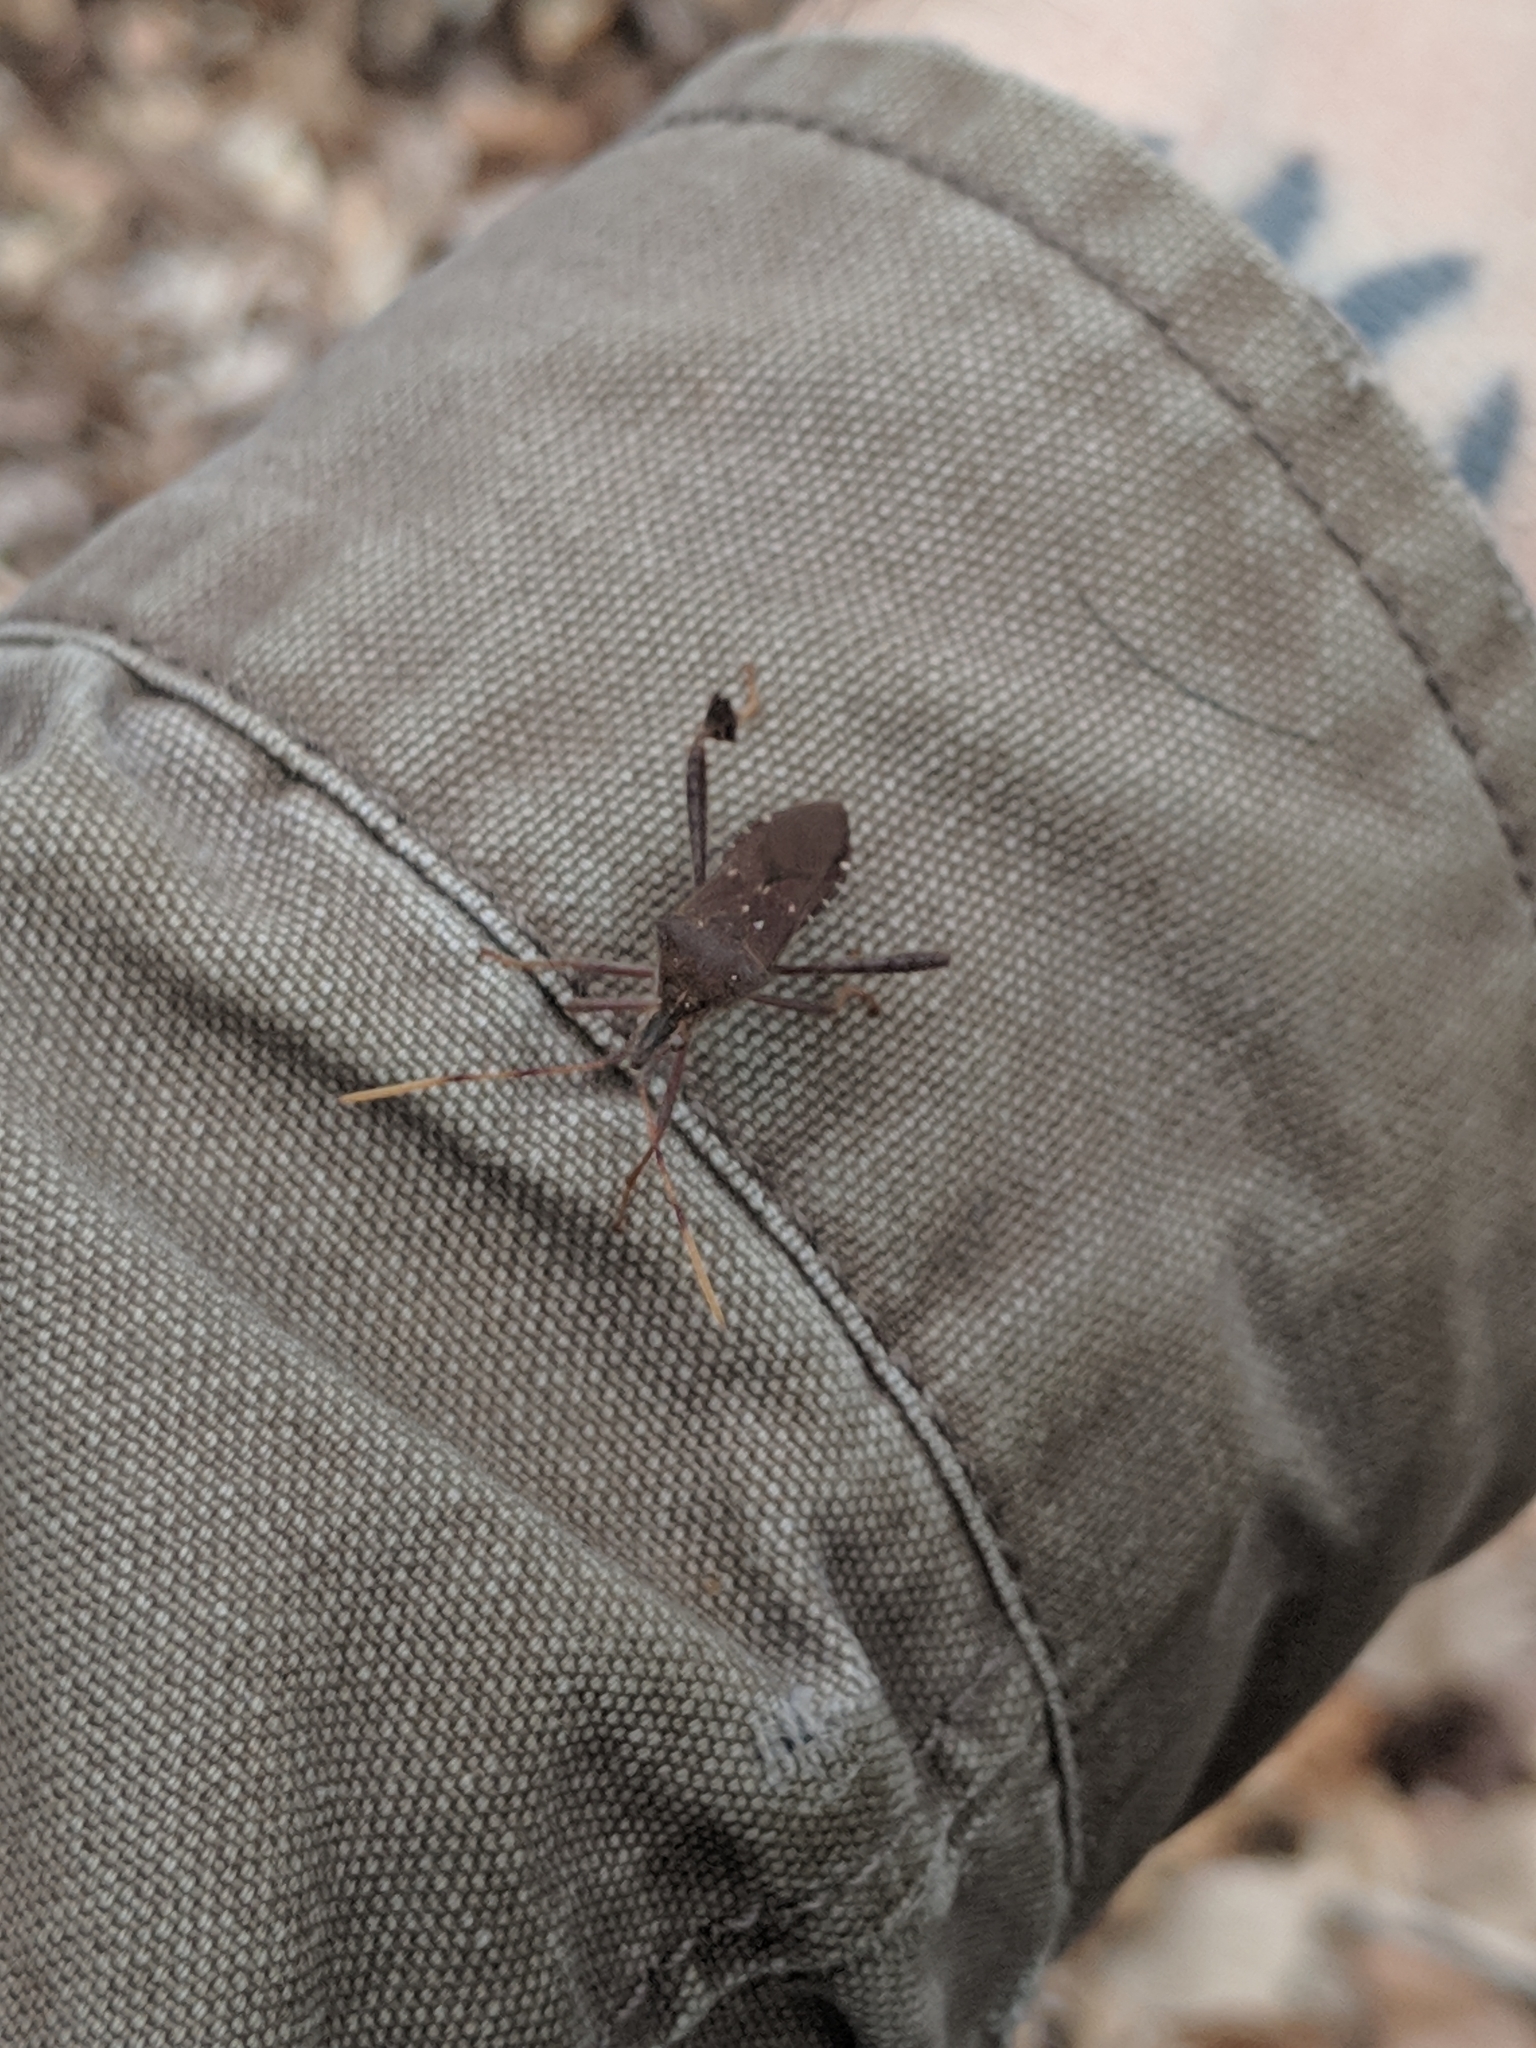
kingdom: Animalia
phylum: Arthropoda
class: Insecta
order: Hemiptera
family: Coreidae
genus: Leptoglossus
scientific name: Leptoglossus oppositus
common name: Northern leaf-footed bug
